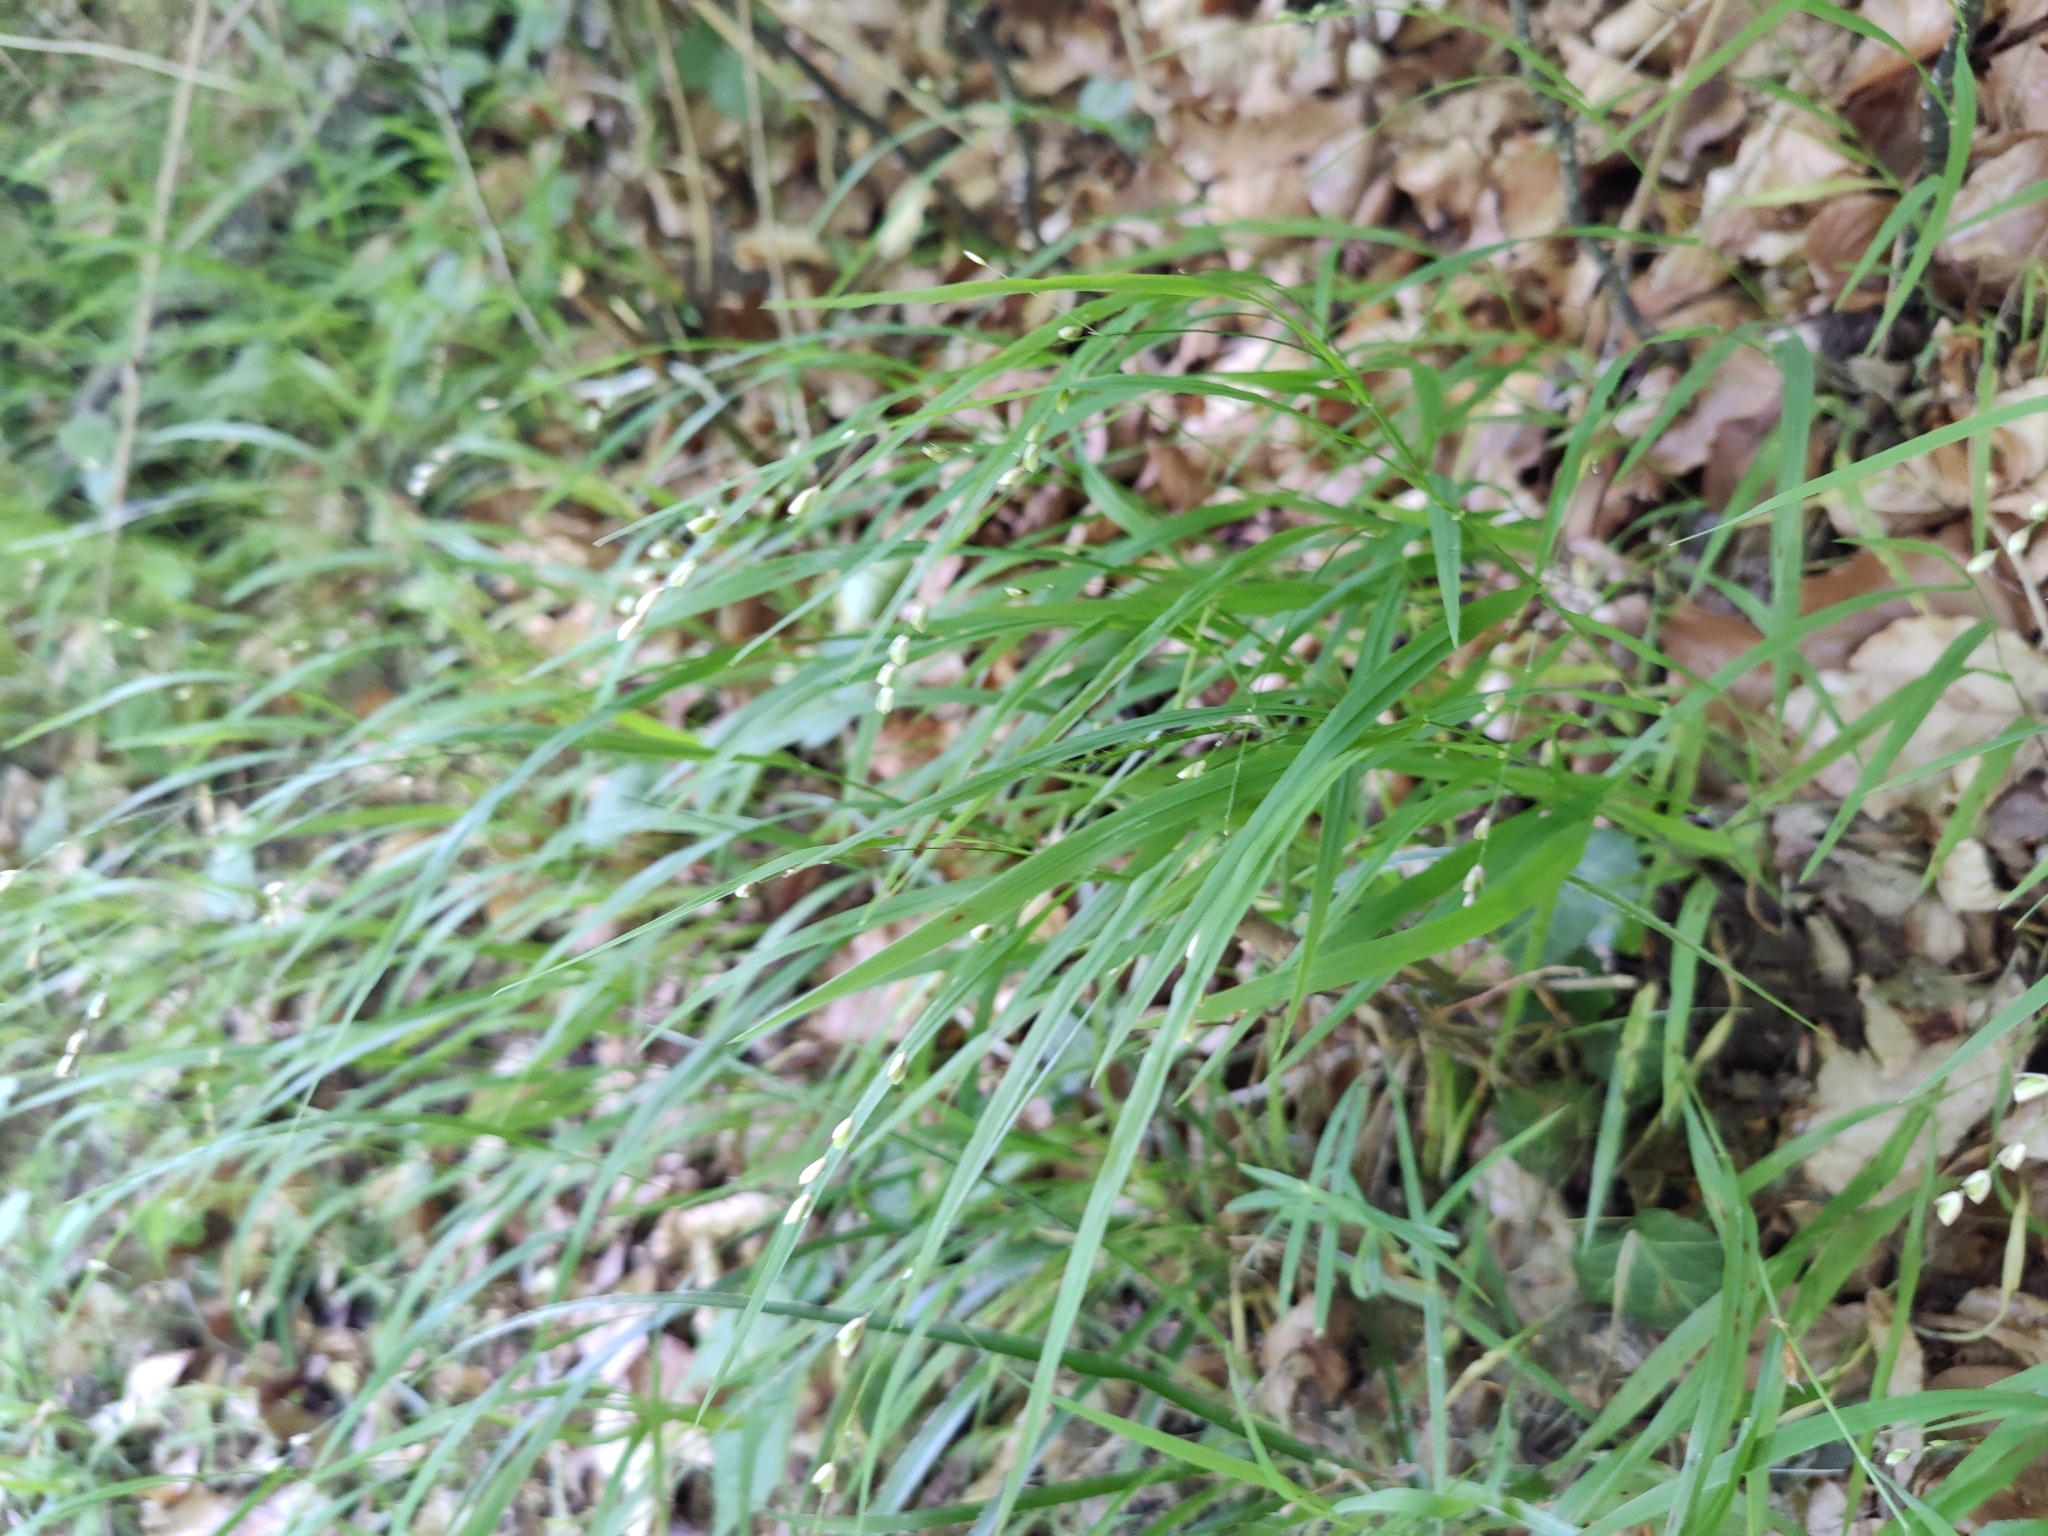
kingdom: Plantae
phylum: Tracheophyta
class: Liliopsida
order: Poales
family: Poaceae
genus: Melica
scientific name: Melica uniflora
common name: Wood melick
